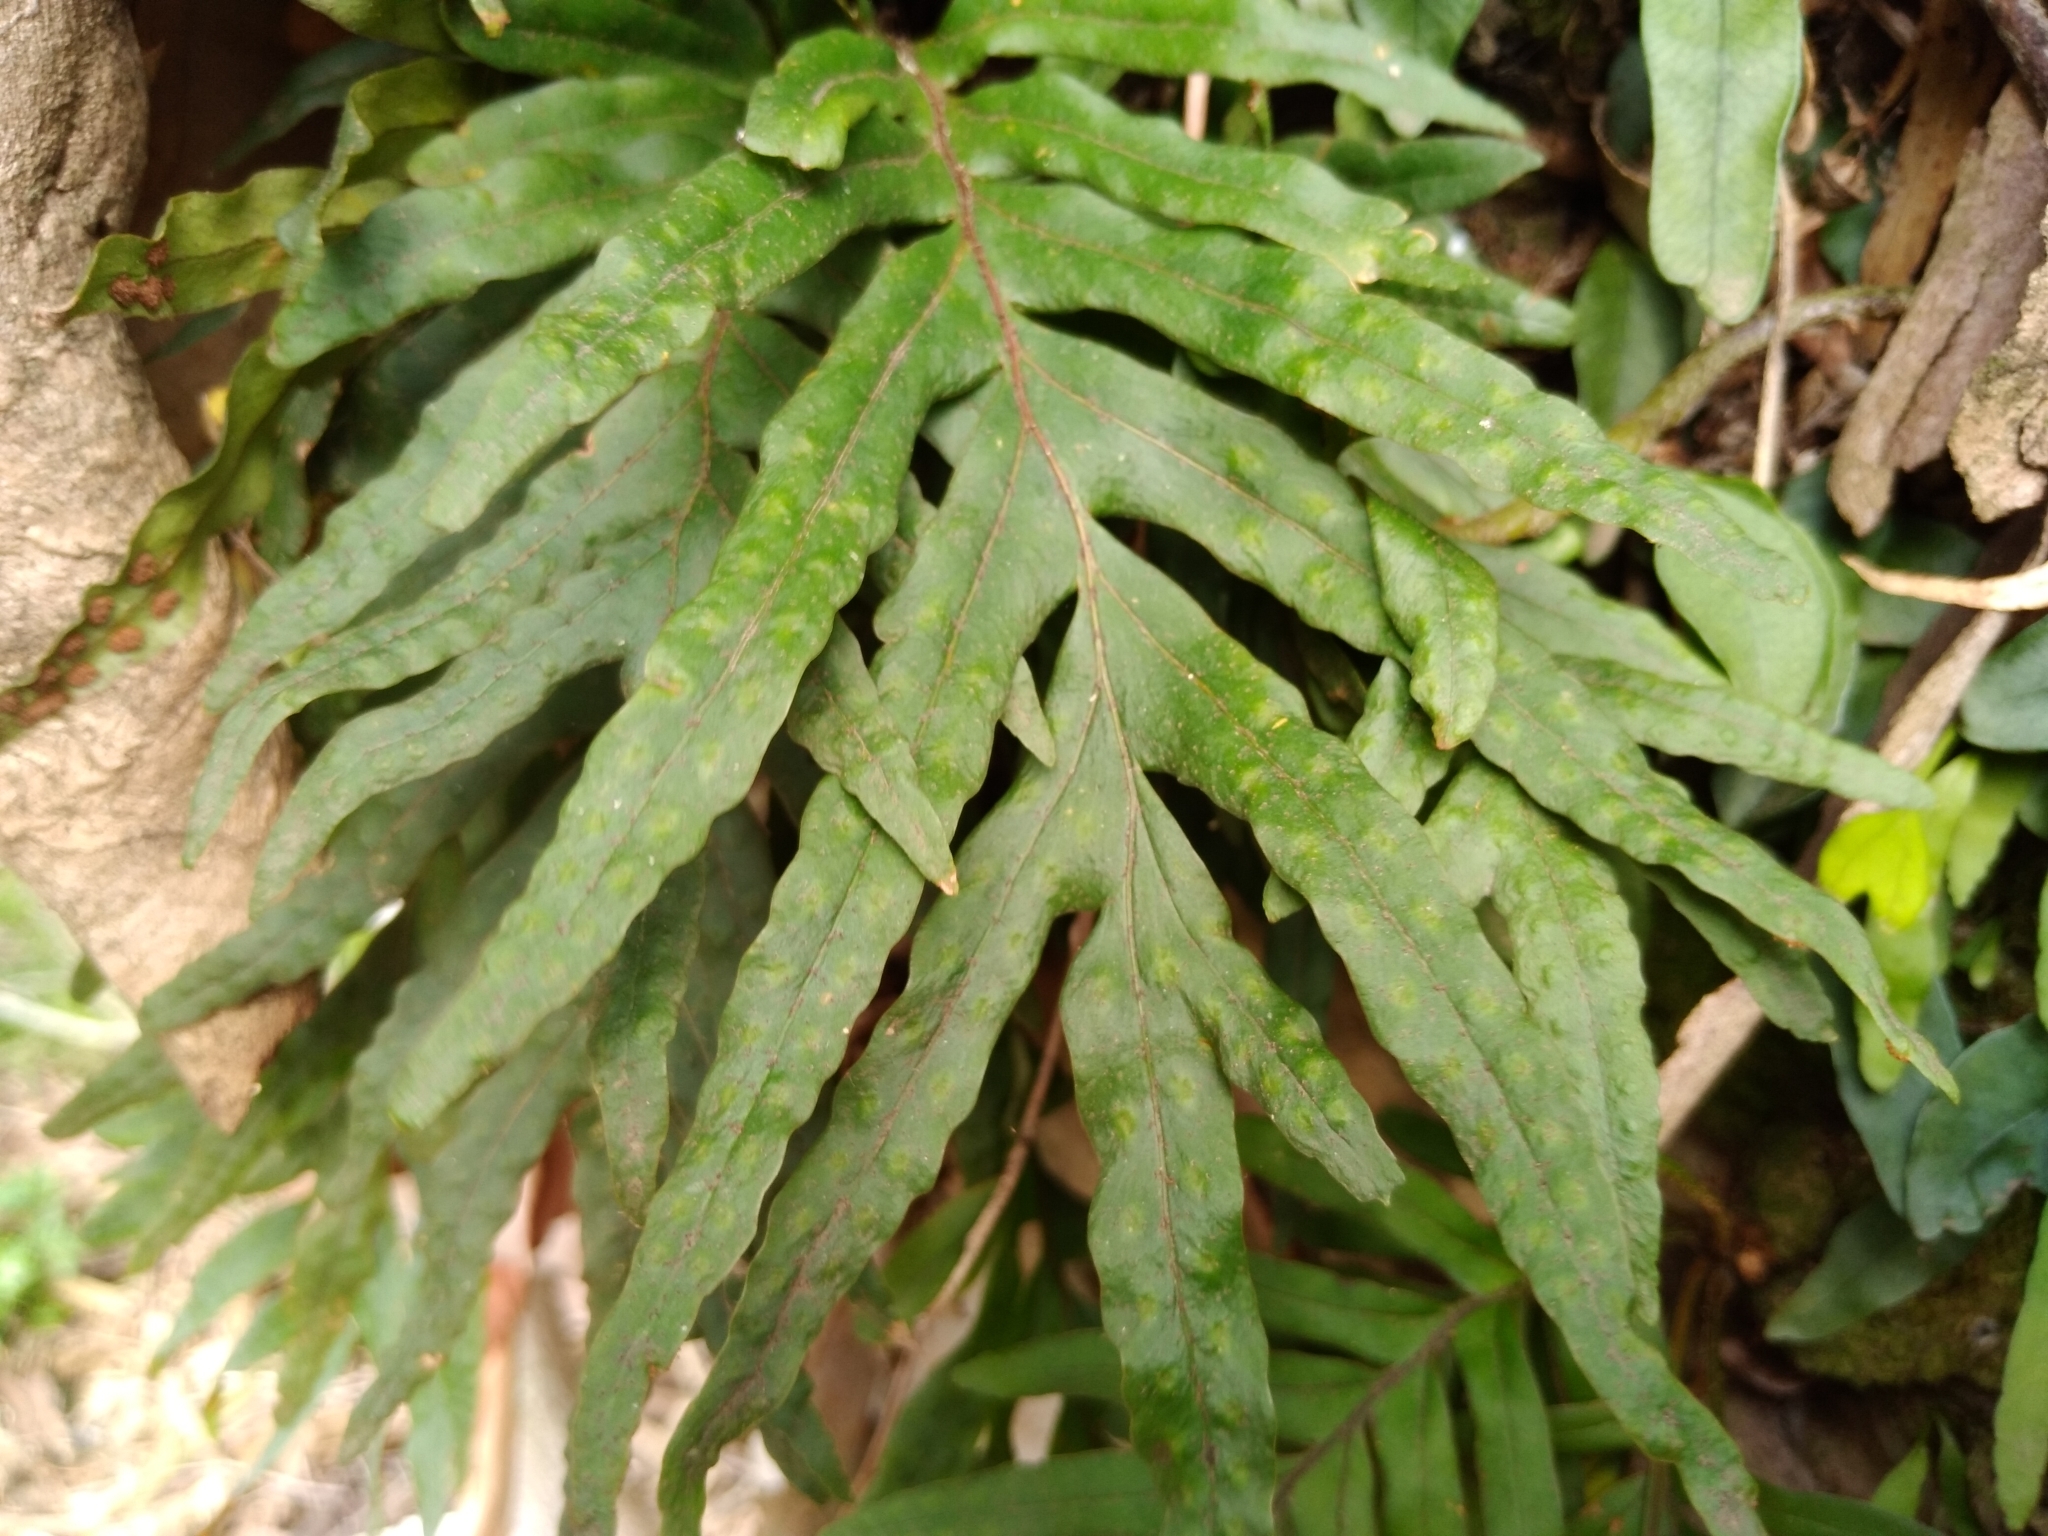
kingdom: Plantae
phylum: Tracheophyta
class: Polypodiopsida
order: Polypodiales
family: Polypodiaceae
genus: Pleopeltis
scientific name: Pleopeltis pleopeltifolia
